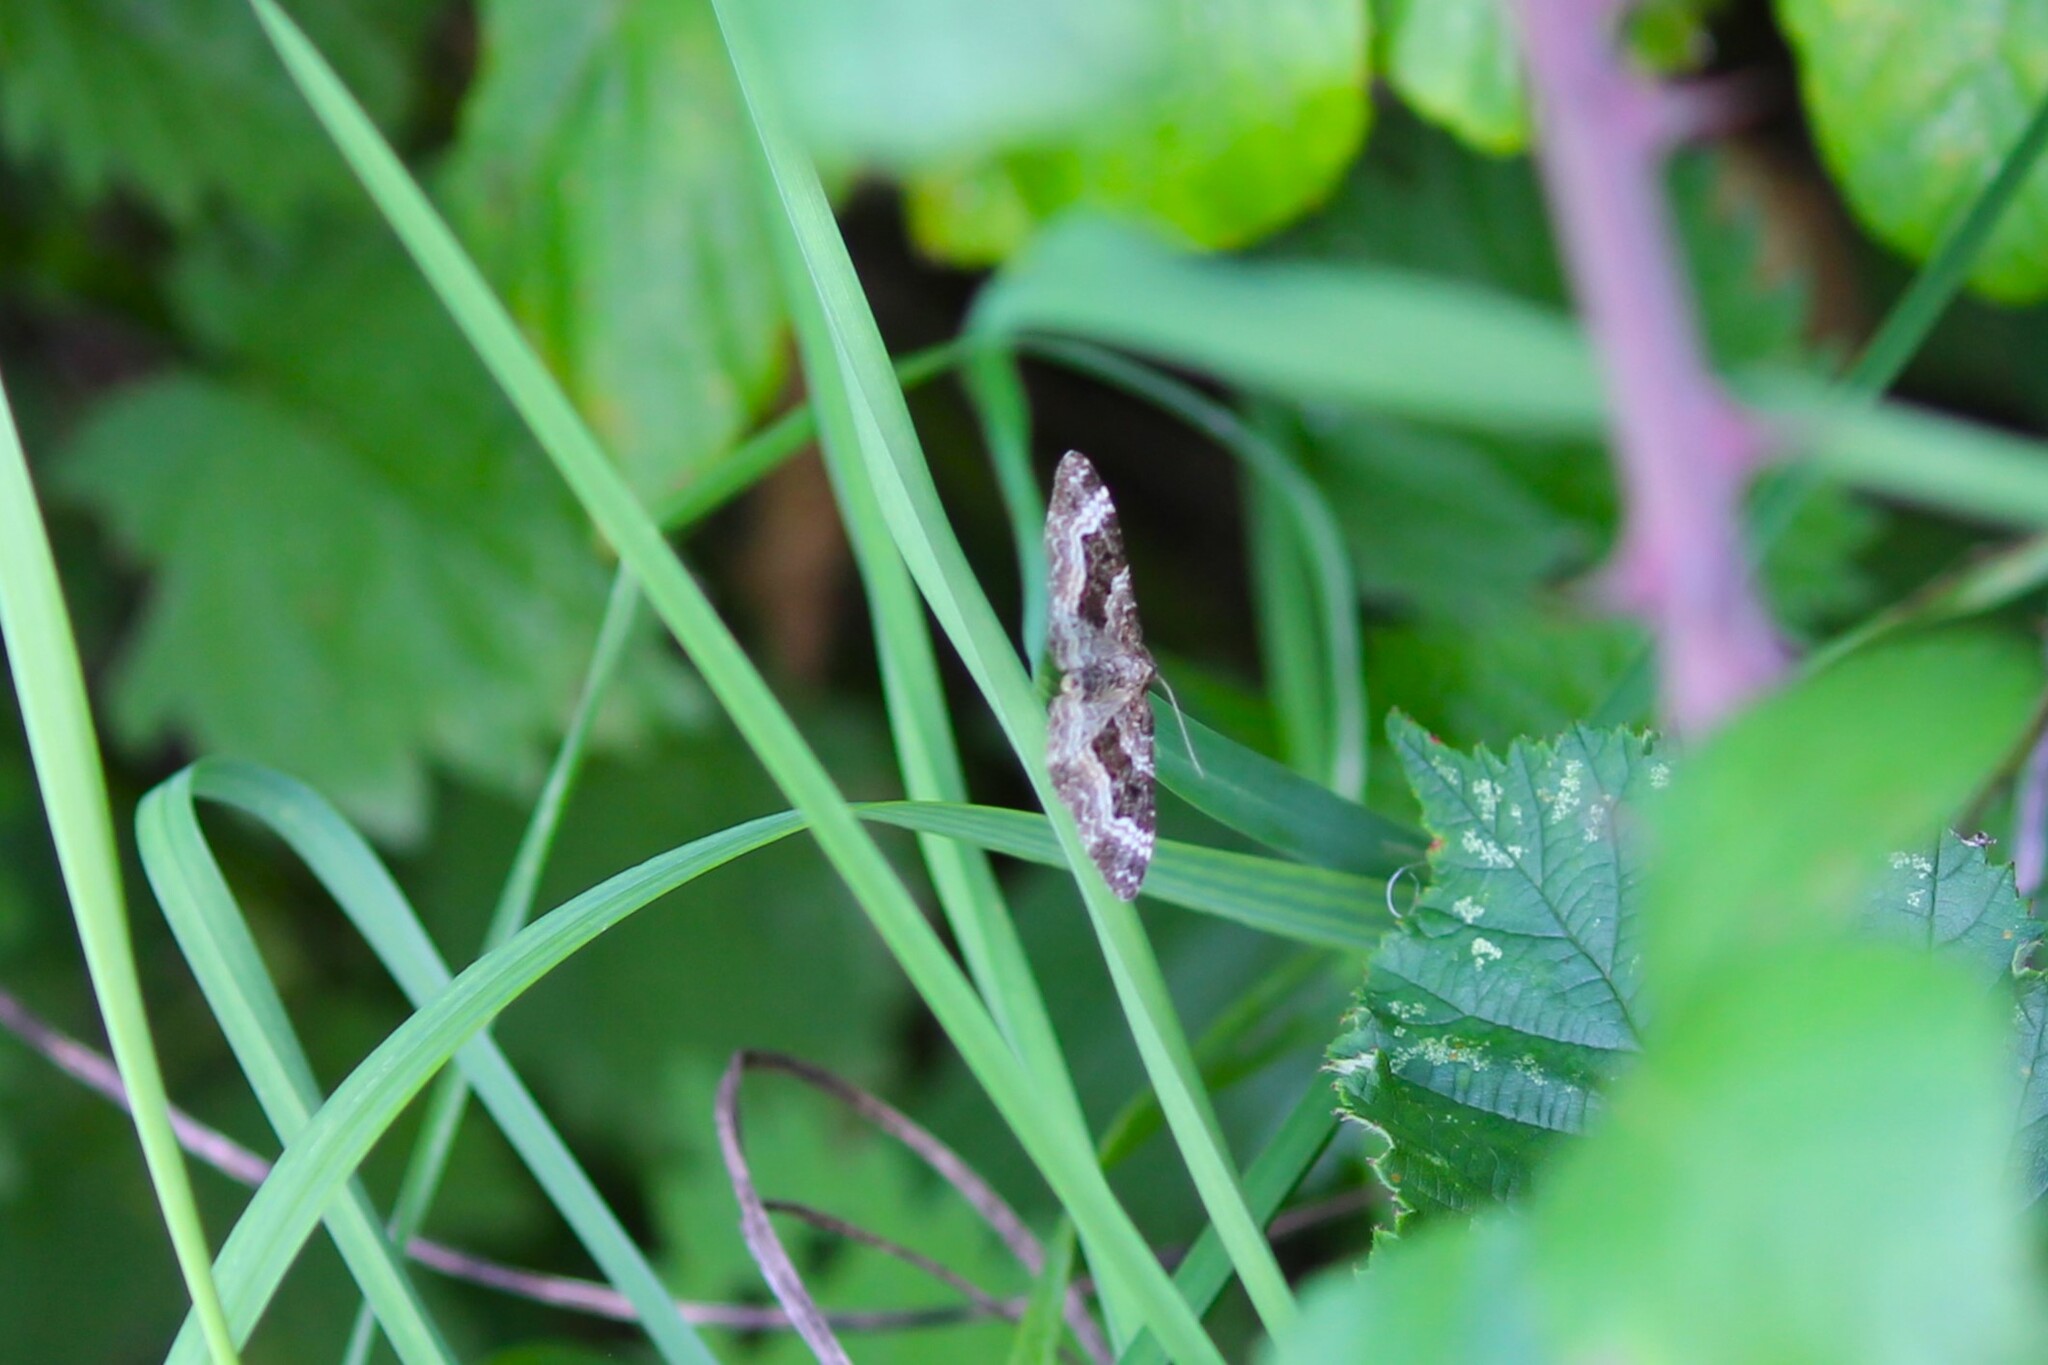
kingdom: Animalia
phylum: Arthropoda
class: Insecta
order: Lepidoptera
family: Geometridae
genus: Epirrhoe
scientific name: Epirrhoe alternata
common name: Common carpet
